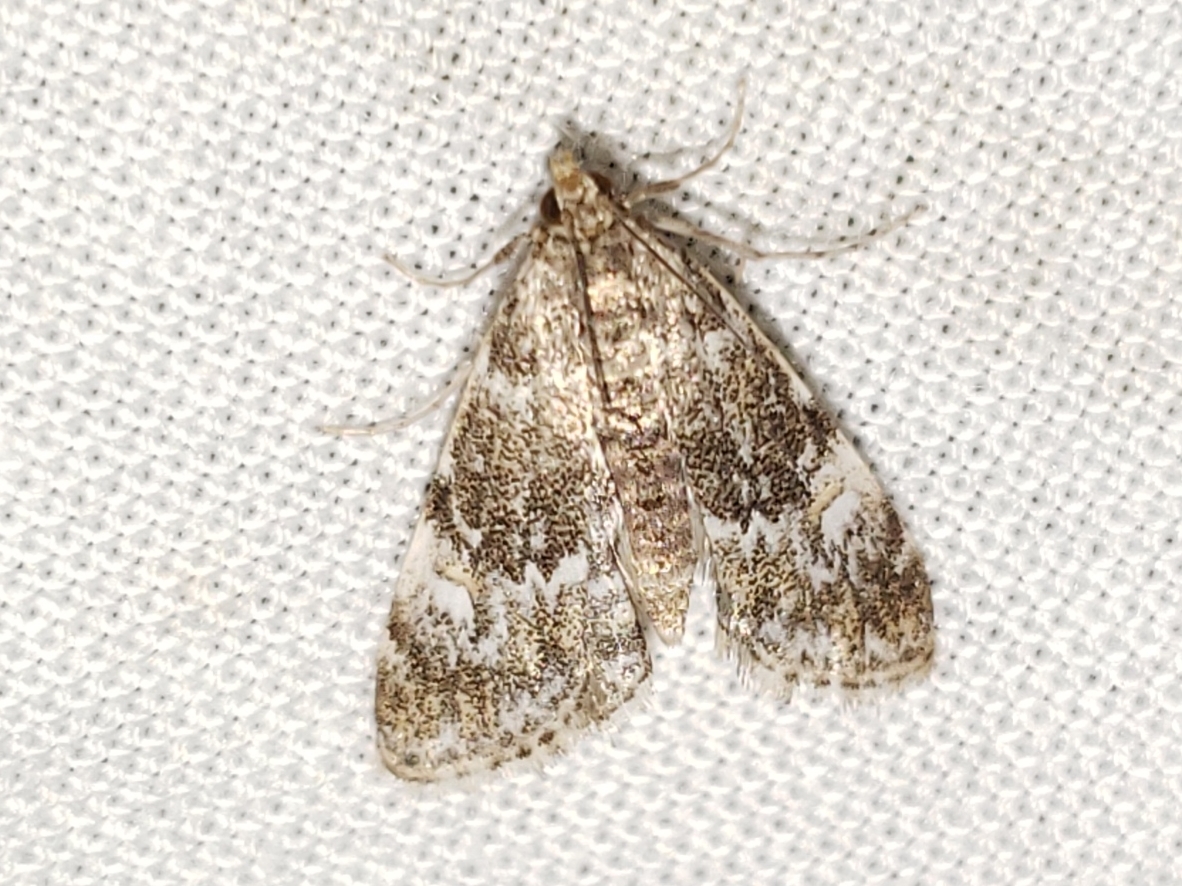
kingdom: Animalia
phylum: Arthropoda
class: Insecta
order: Lepidoptera
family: Crambidae
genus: Elophila
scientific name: Elophila obliteralis
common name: Waterlily leafcutter moth
